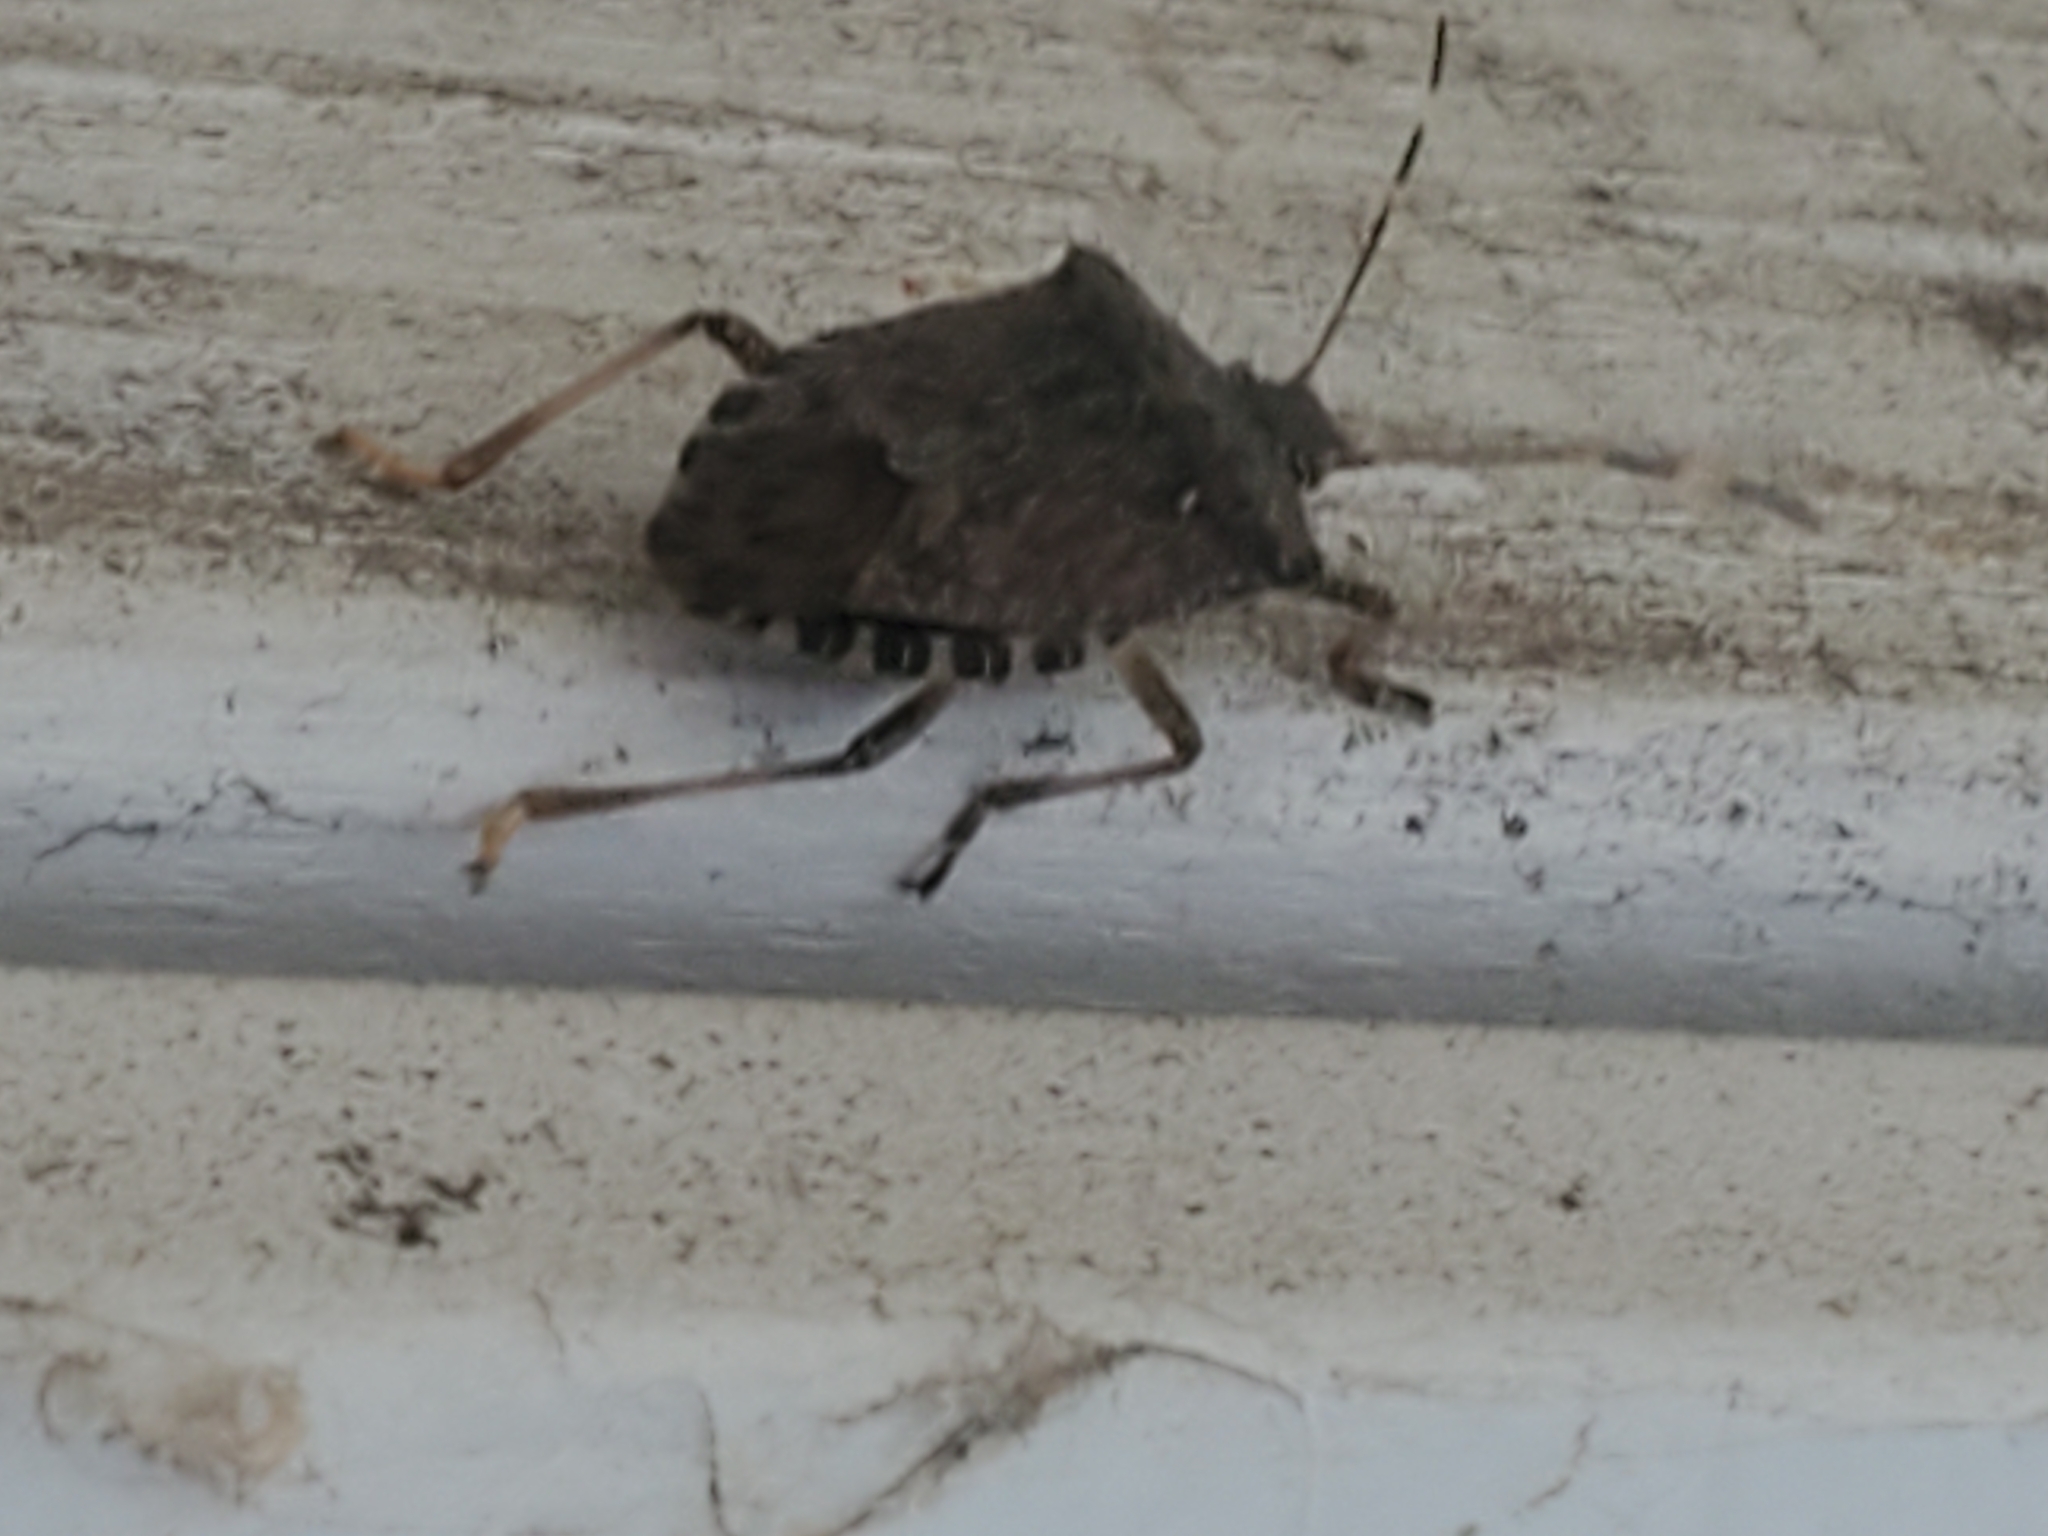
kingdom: Animalia
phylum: Arthropoda
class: Insecta
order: Hemiptera
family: Pentatomidae
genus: Halyomorpha
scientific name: Halyomorpha halys
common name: Brown marmorated stink bug
